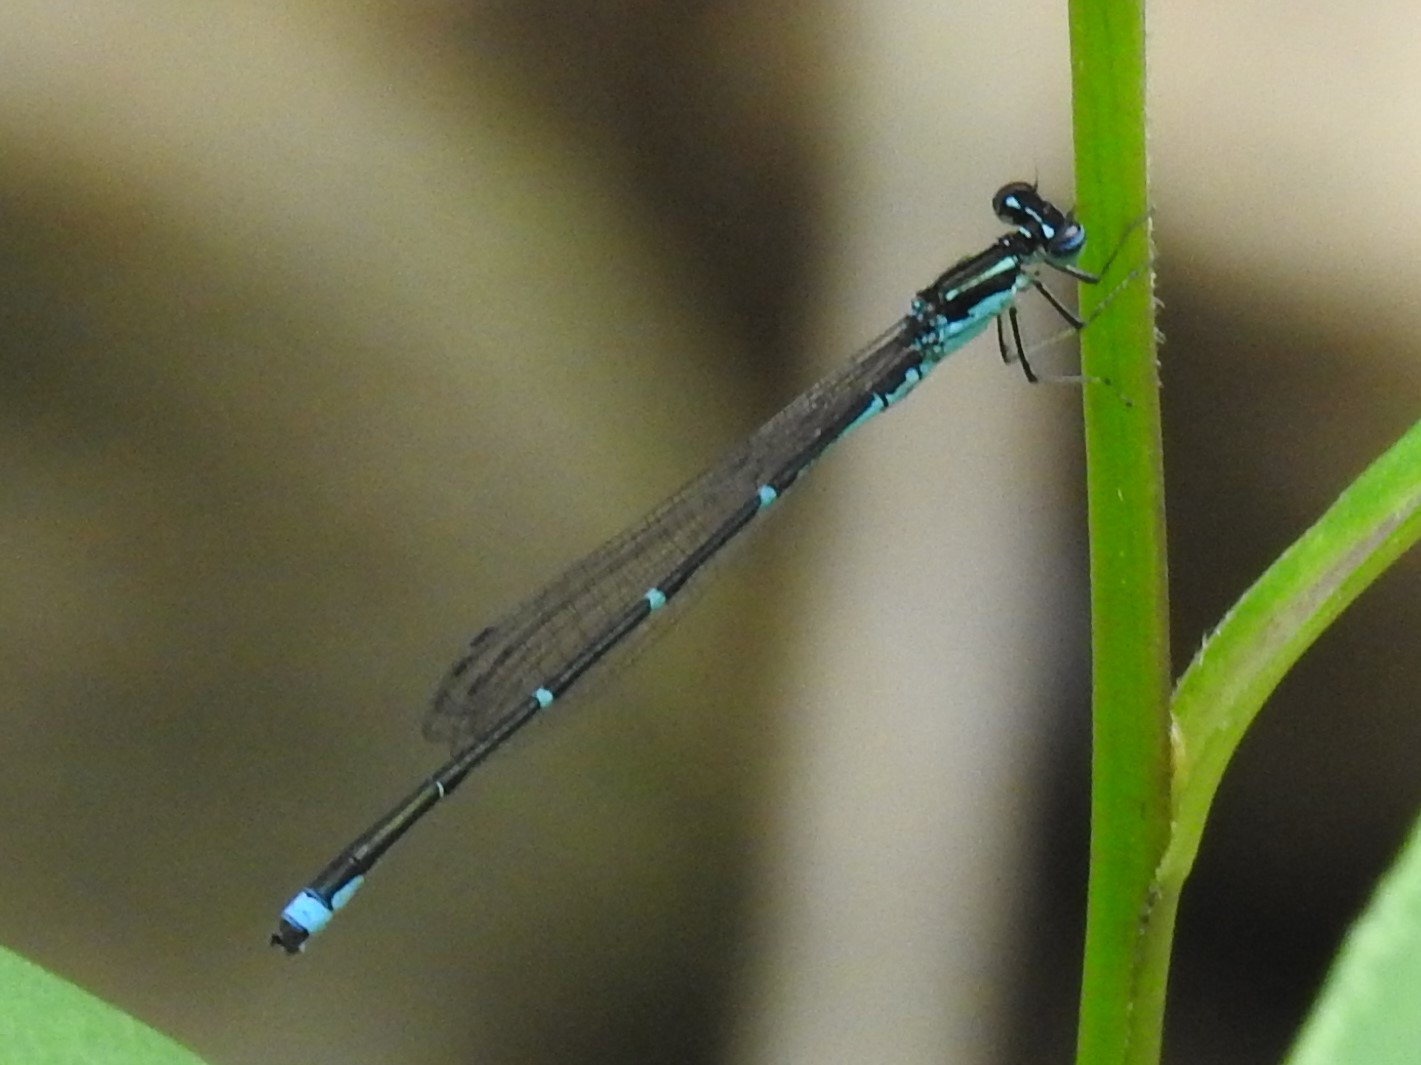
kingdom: Animalia
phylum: Arthropoda
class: Insecta
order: Odonata
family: Coenagrionidae
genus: Enallagma
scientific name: Enallagma exsulans
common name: Stream bluet
